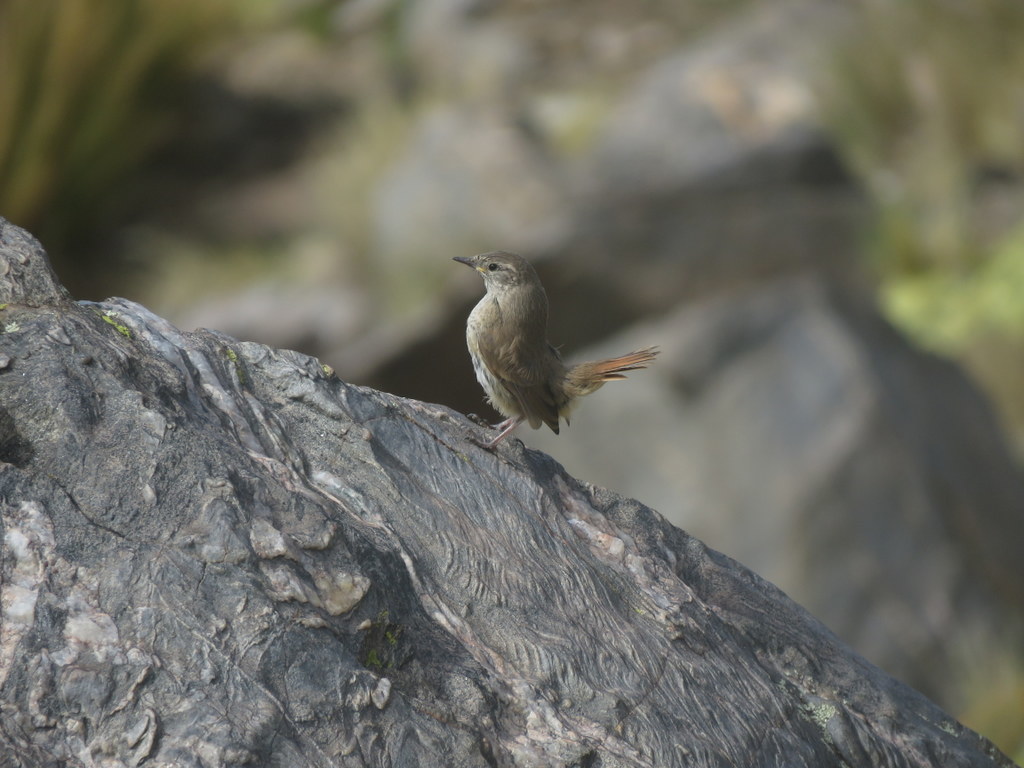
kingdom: Animalia
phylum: Chordata
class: Aves
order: Passeriformes
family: Furnariidae
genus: Asthenes
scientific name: Asthenes modesta
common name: Cordilleran canastero
